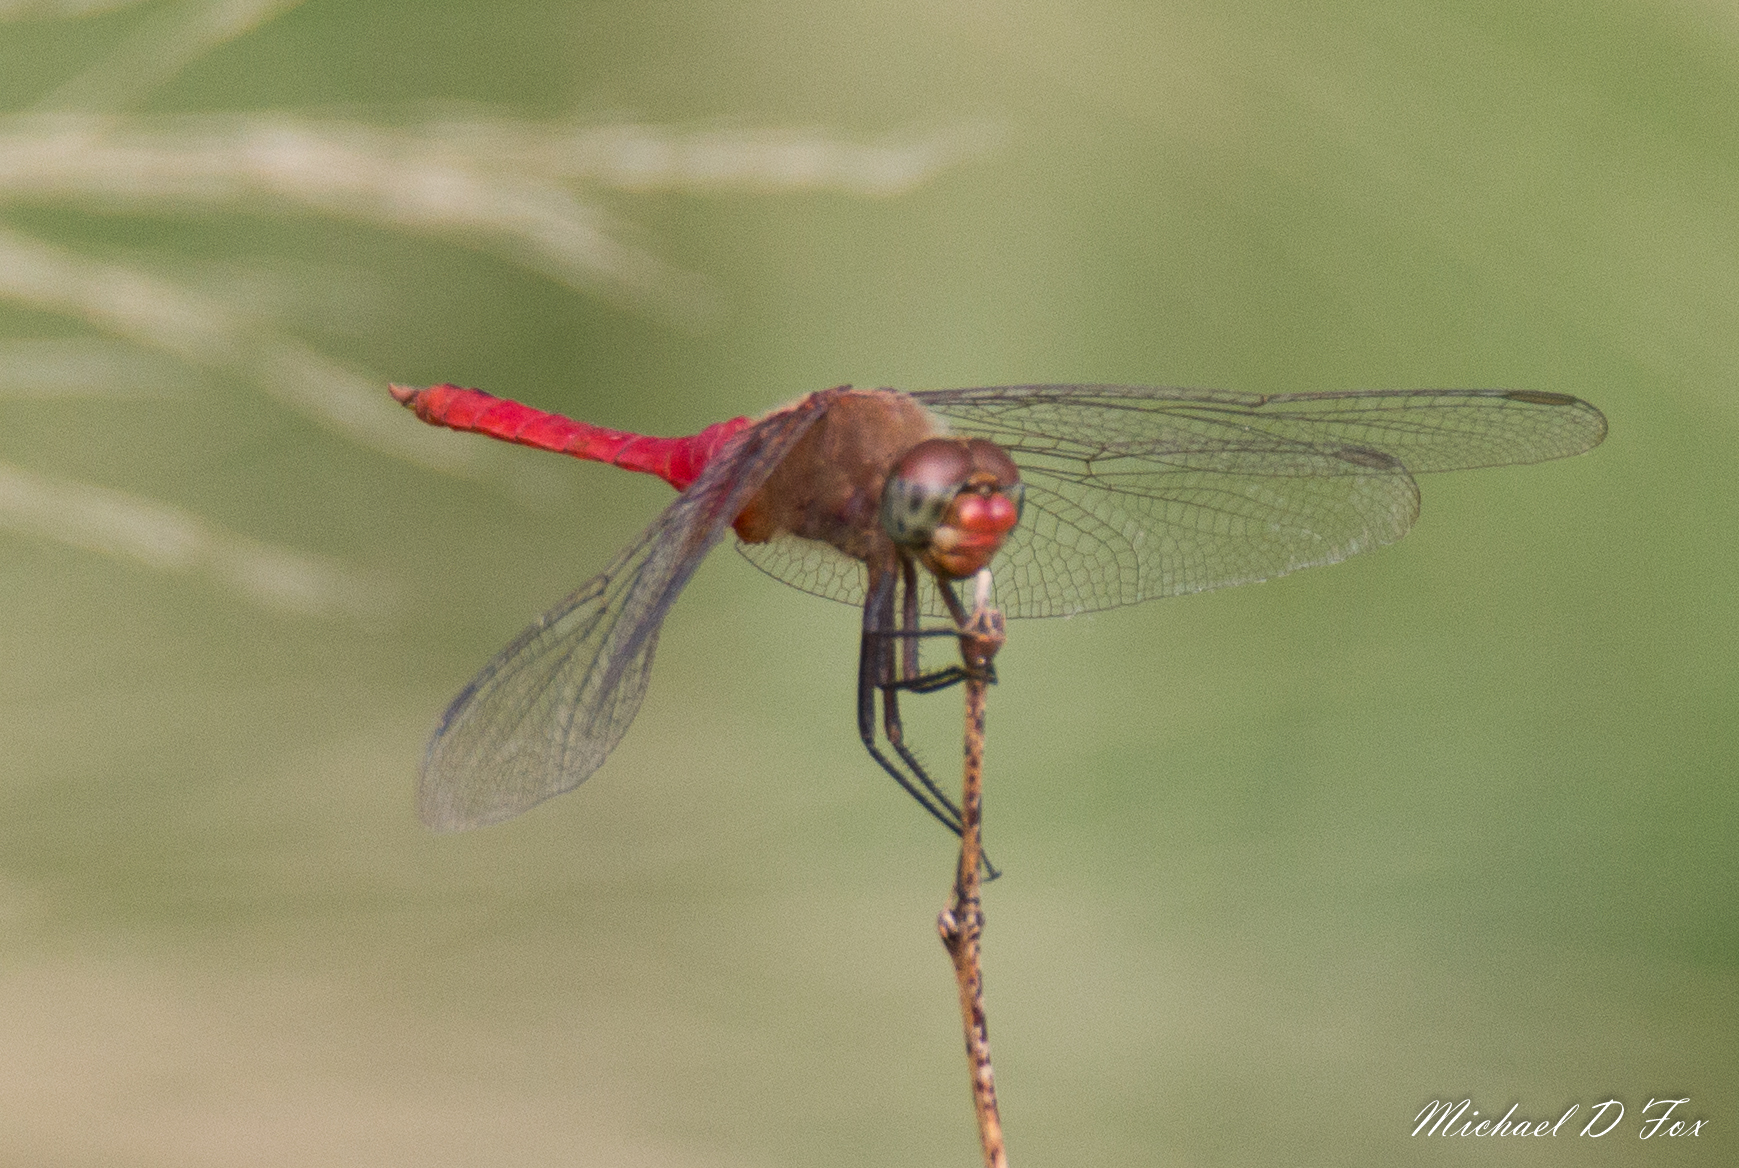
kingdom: Animalia
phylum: Arthropoda
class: Insecta
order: Odonata
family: Libellulidae
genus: Brachymesia
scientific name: Brachymesia furcata
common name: Red-taled pennant
